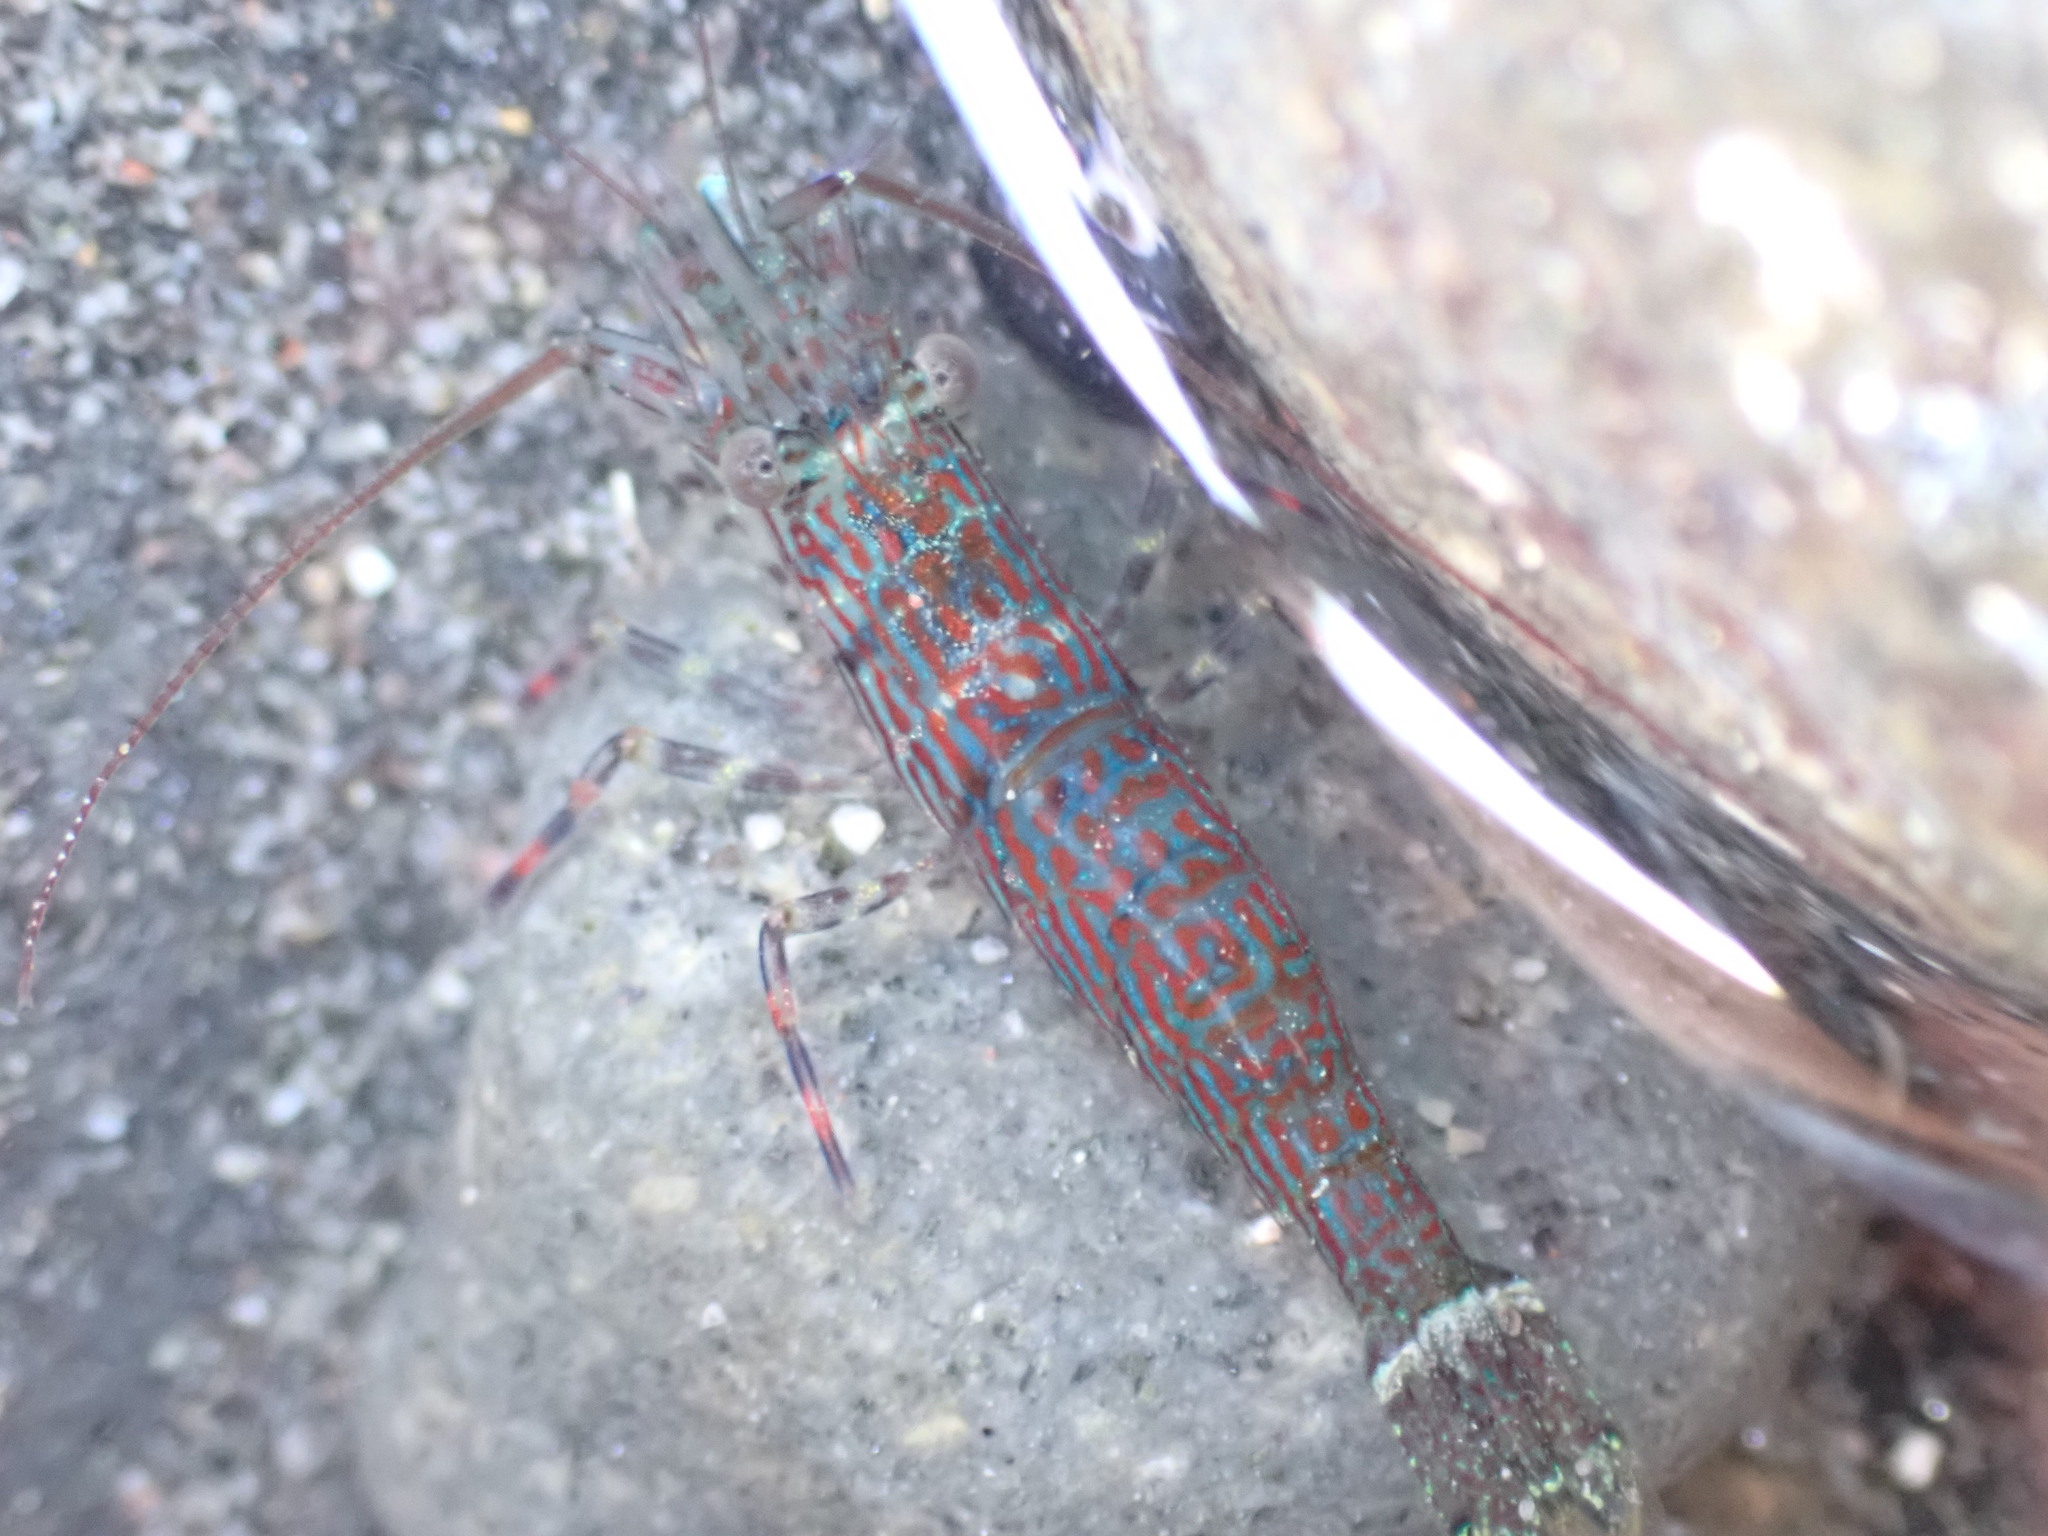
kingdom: Animalia
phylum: Arthropoda
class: Malacostraca
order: Decapoda
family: Hippolytidae
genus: Alope
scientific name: Alope spinifrons
